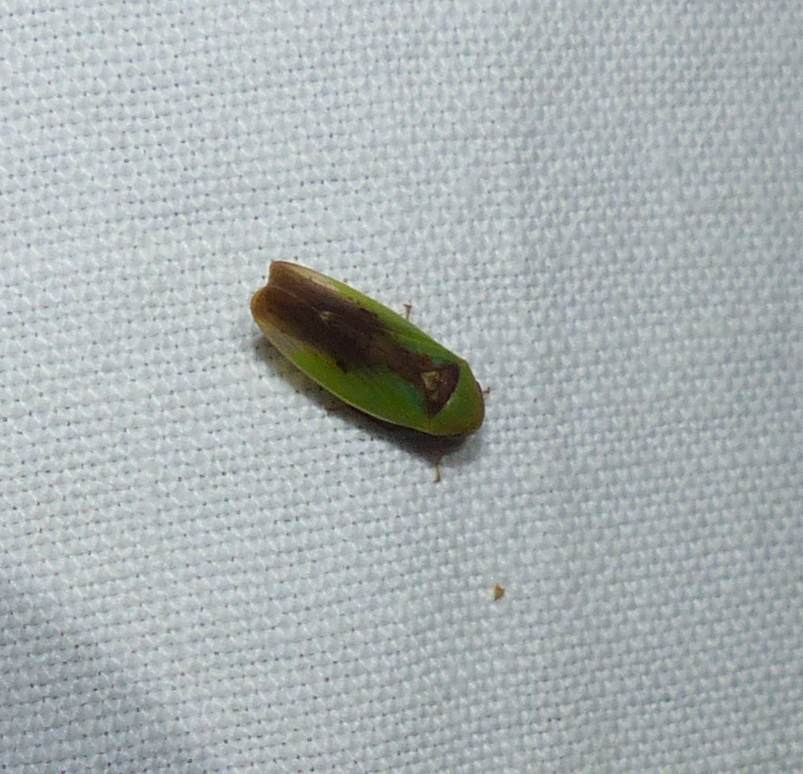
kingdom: Animalia
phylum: Arthropoda
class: Insecta
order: Hemiptera
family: Cicadellidae
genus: Ponana
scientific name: Ponana pectoralis
